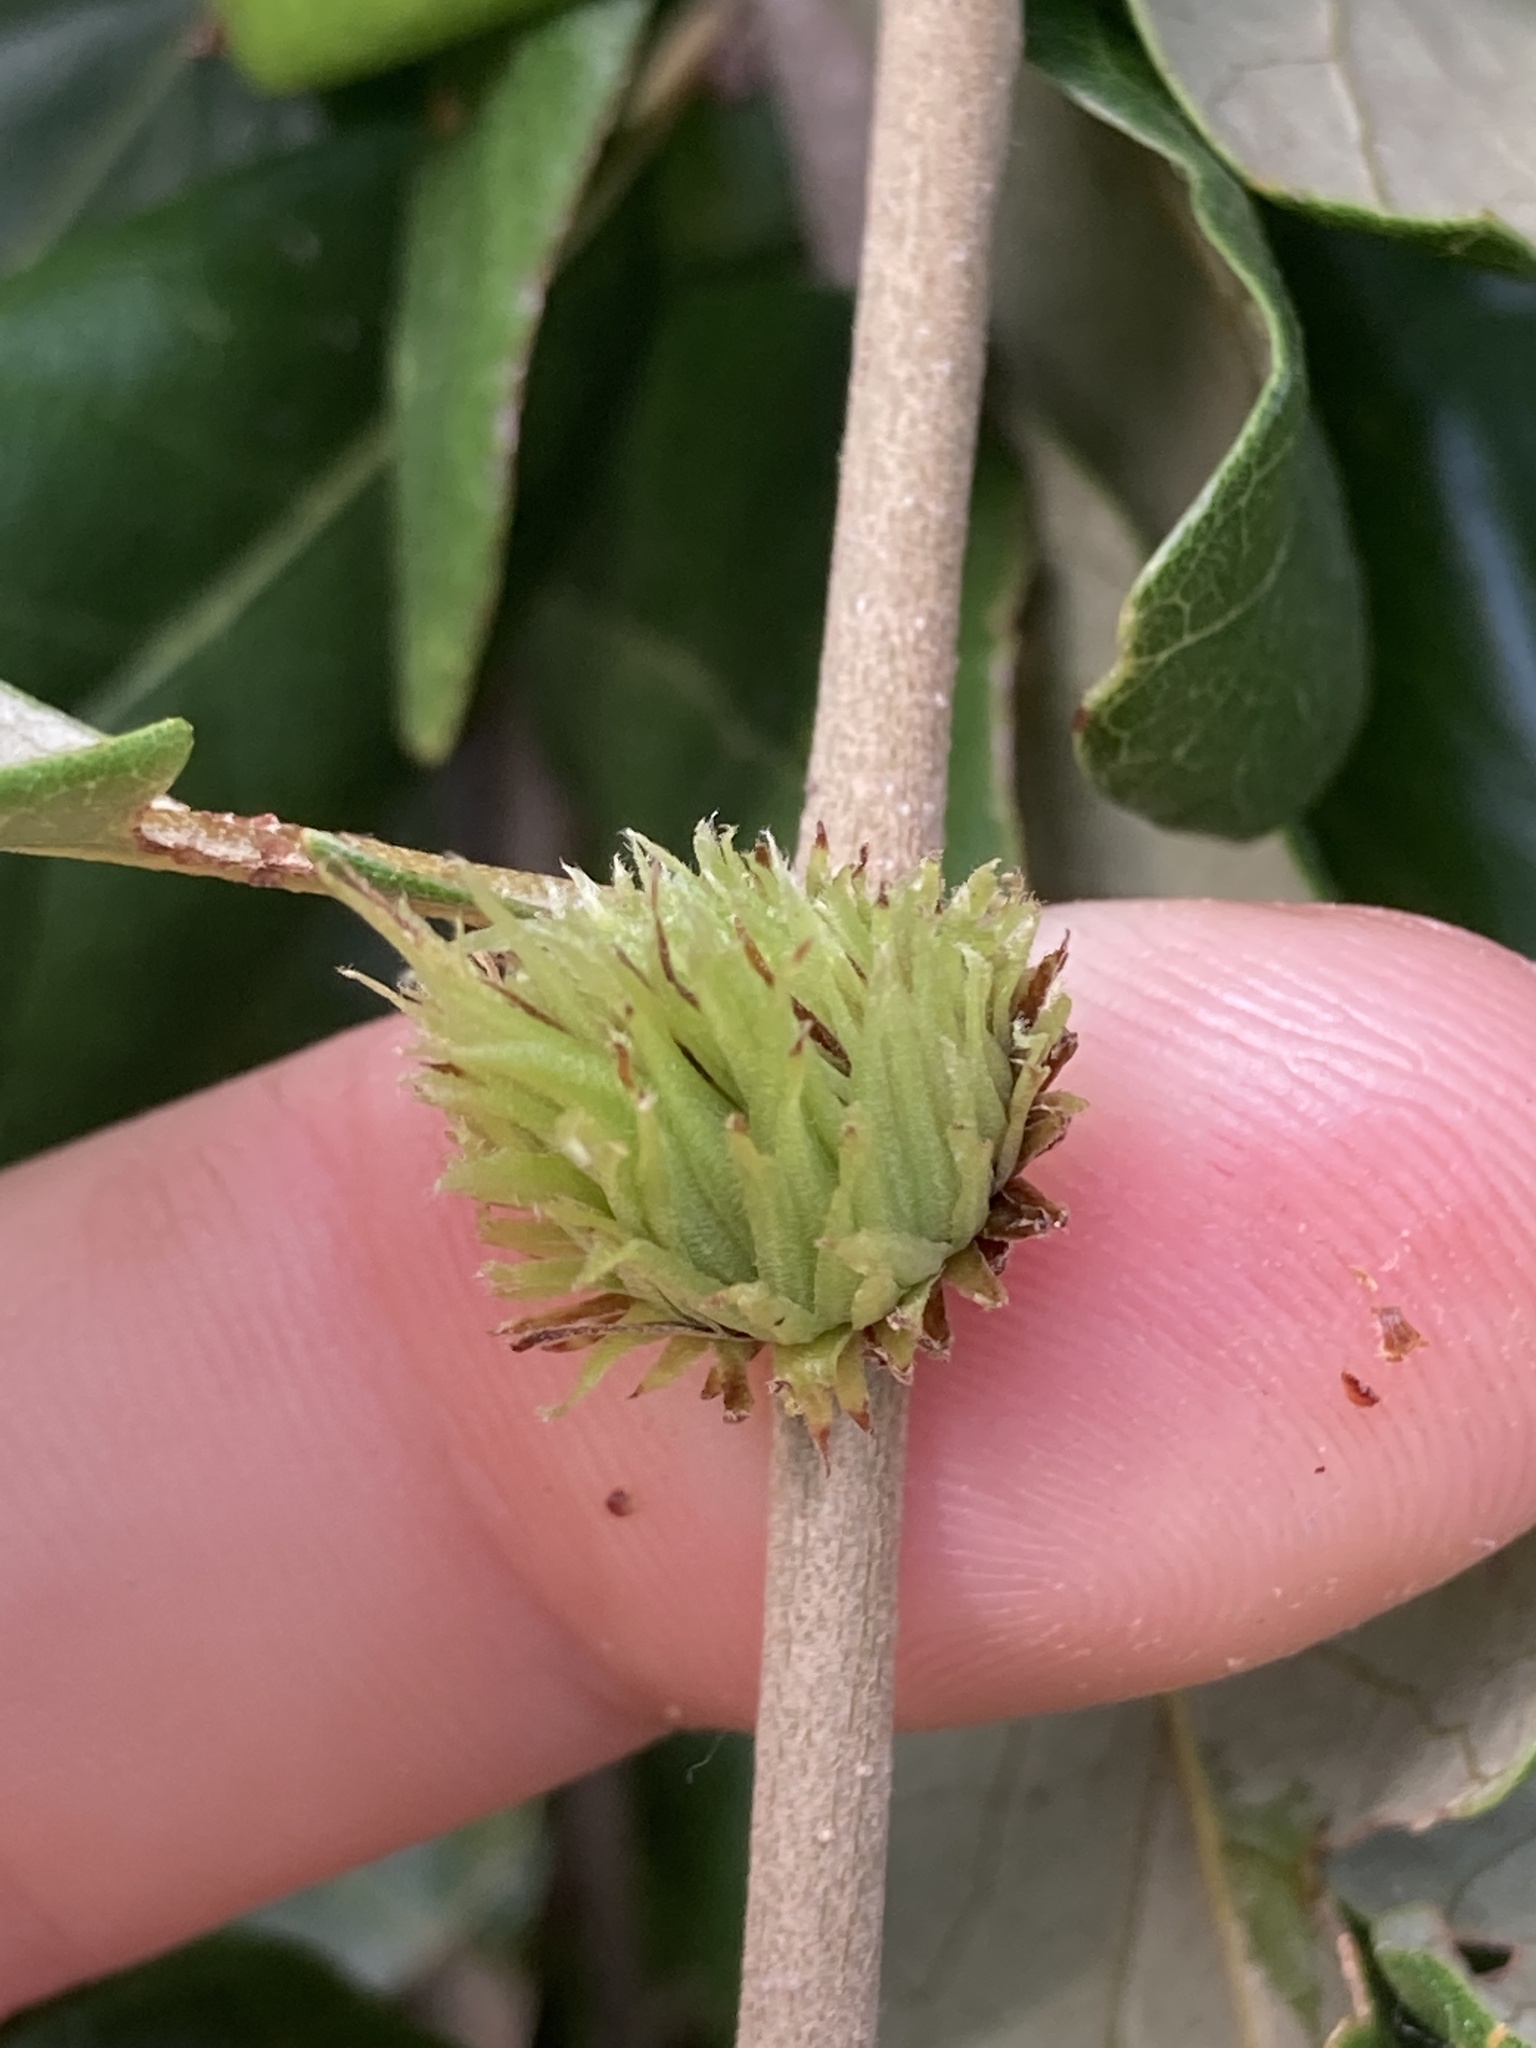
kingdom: Animalia
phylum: Arthropoda
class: Insecta
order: Hymenoptera
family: Cynipidae
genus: Andricus
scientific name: Andricus quercusfoliatus
